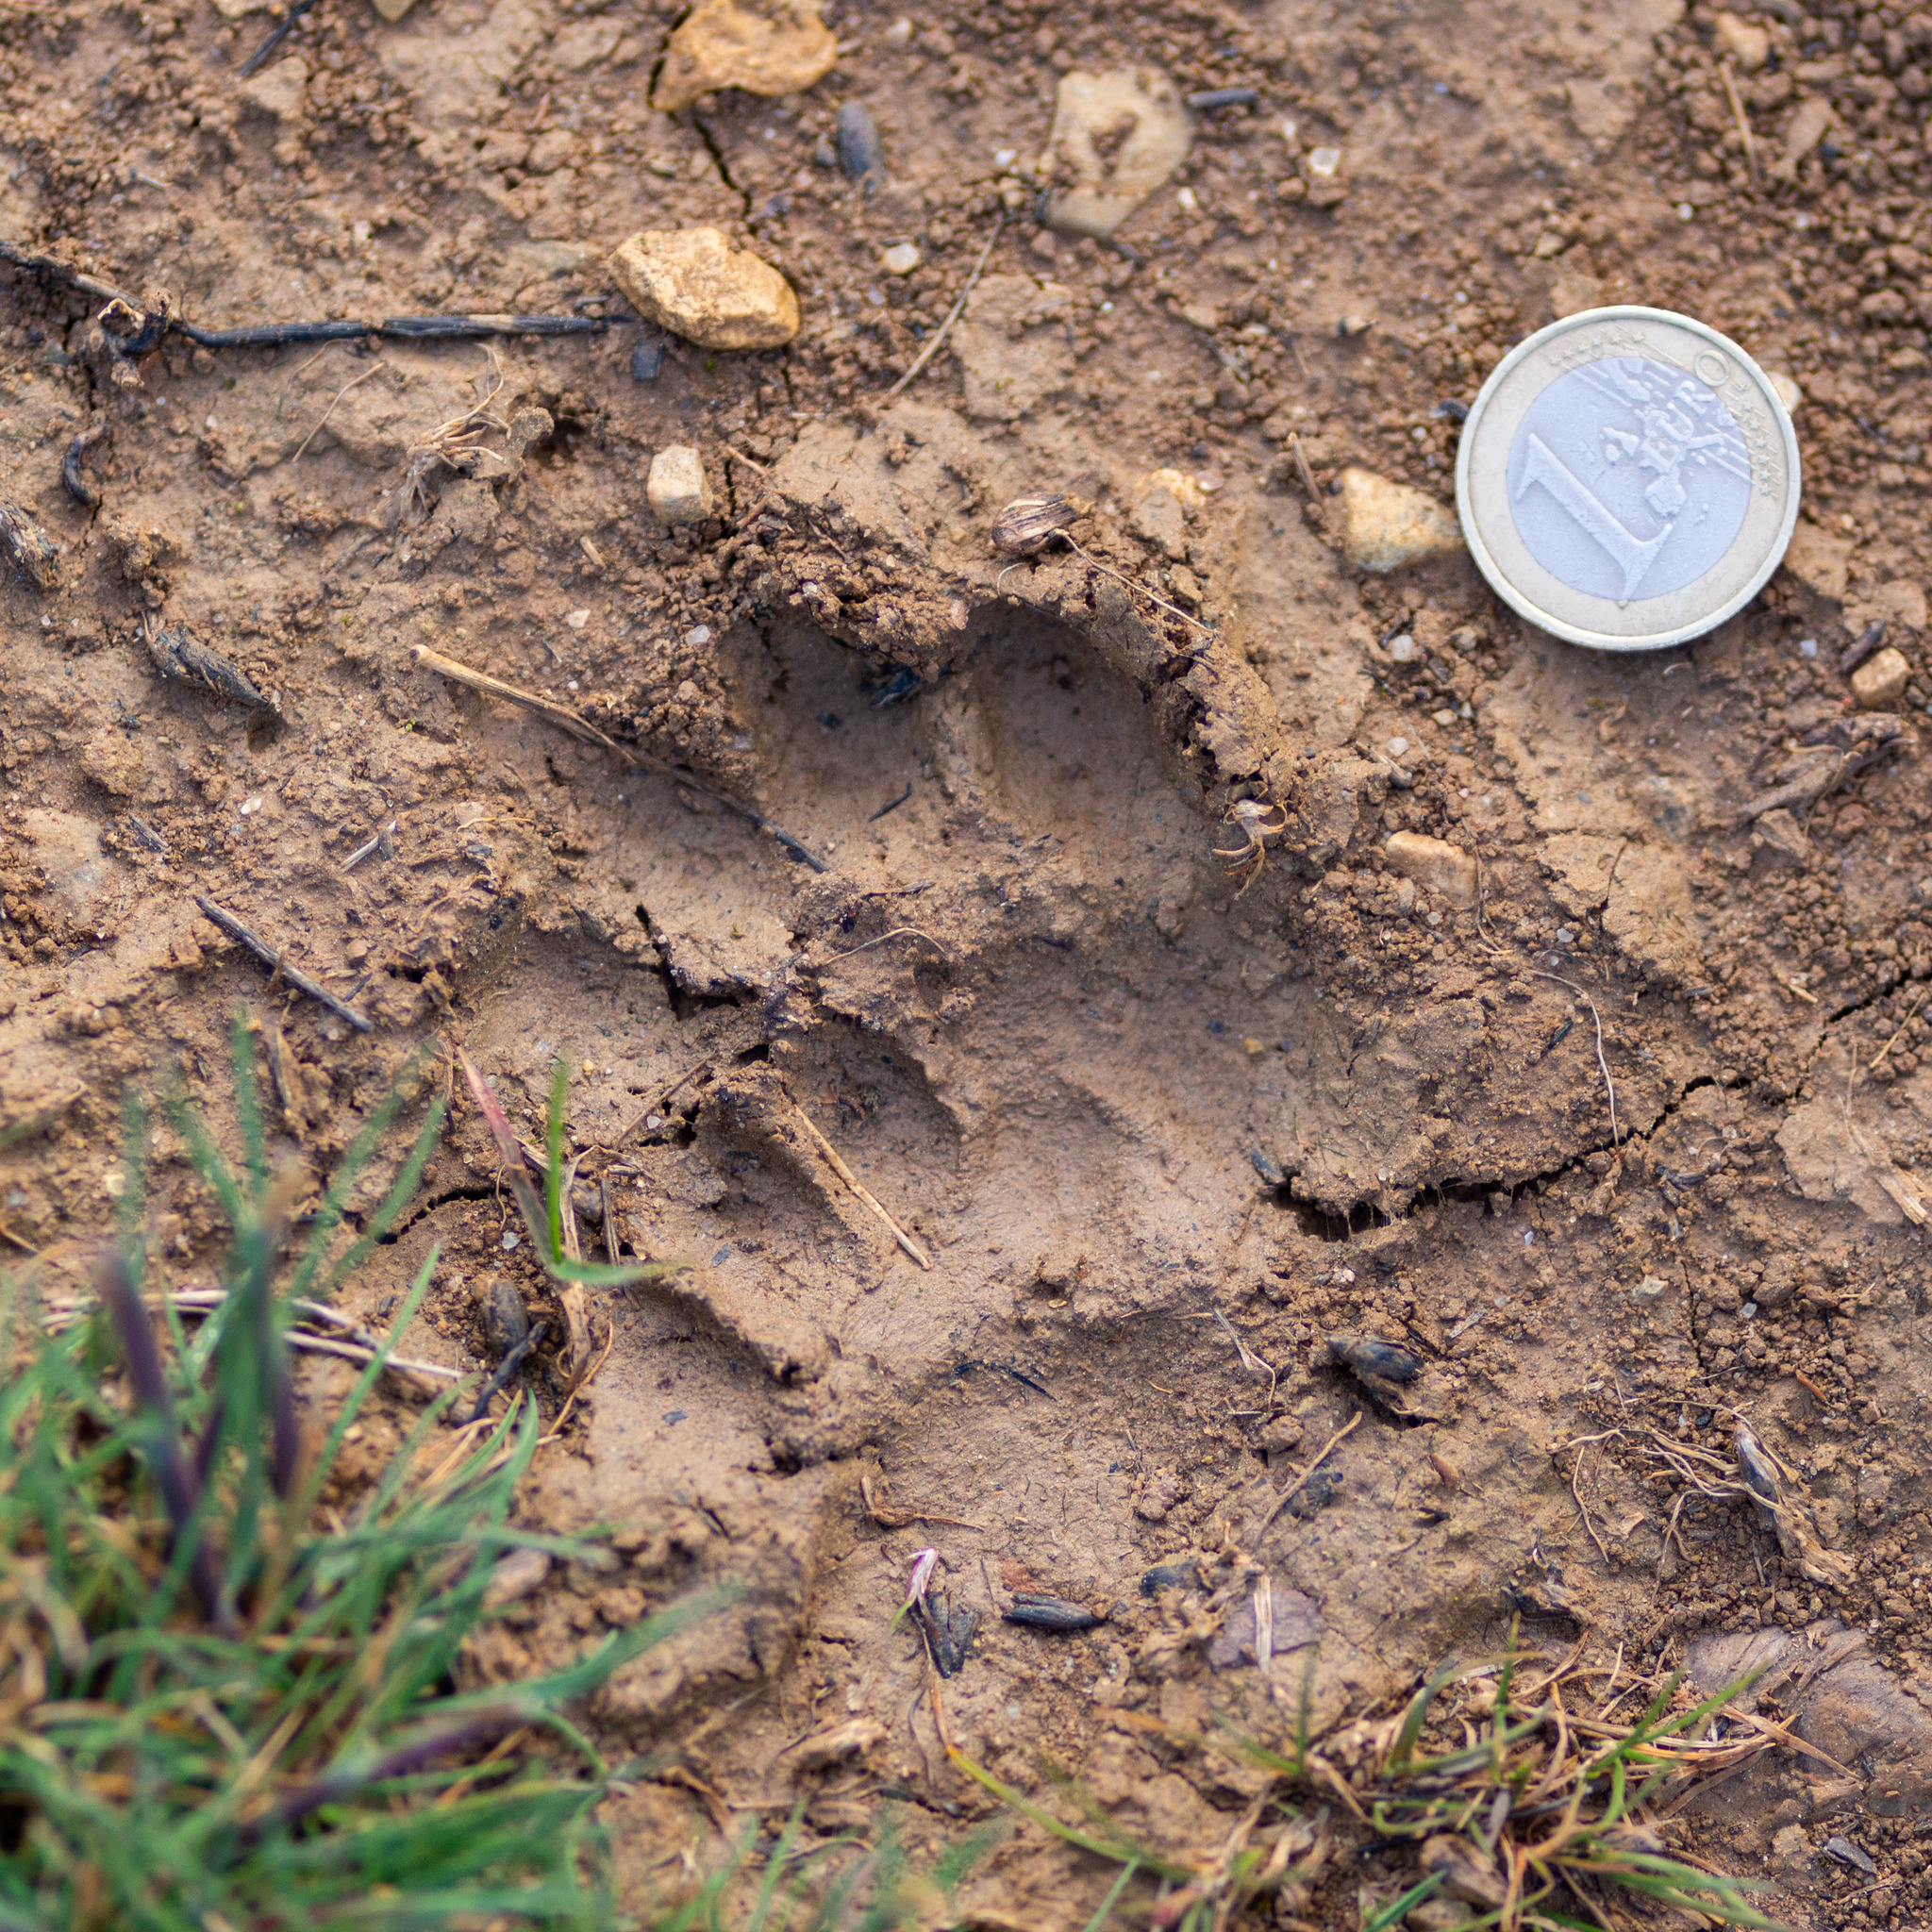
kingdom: Animalia
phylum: Chordata
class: Mammalia
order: Carnivora
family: Mustelidae
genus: Meles
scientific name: Meles meles
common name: Eurasian badger
